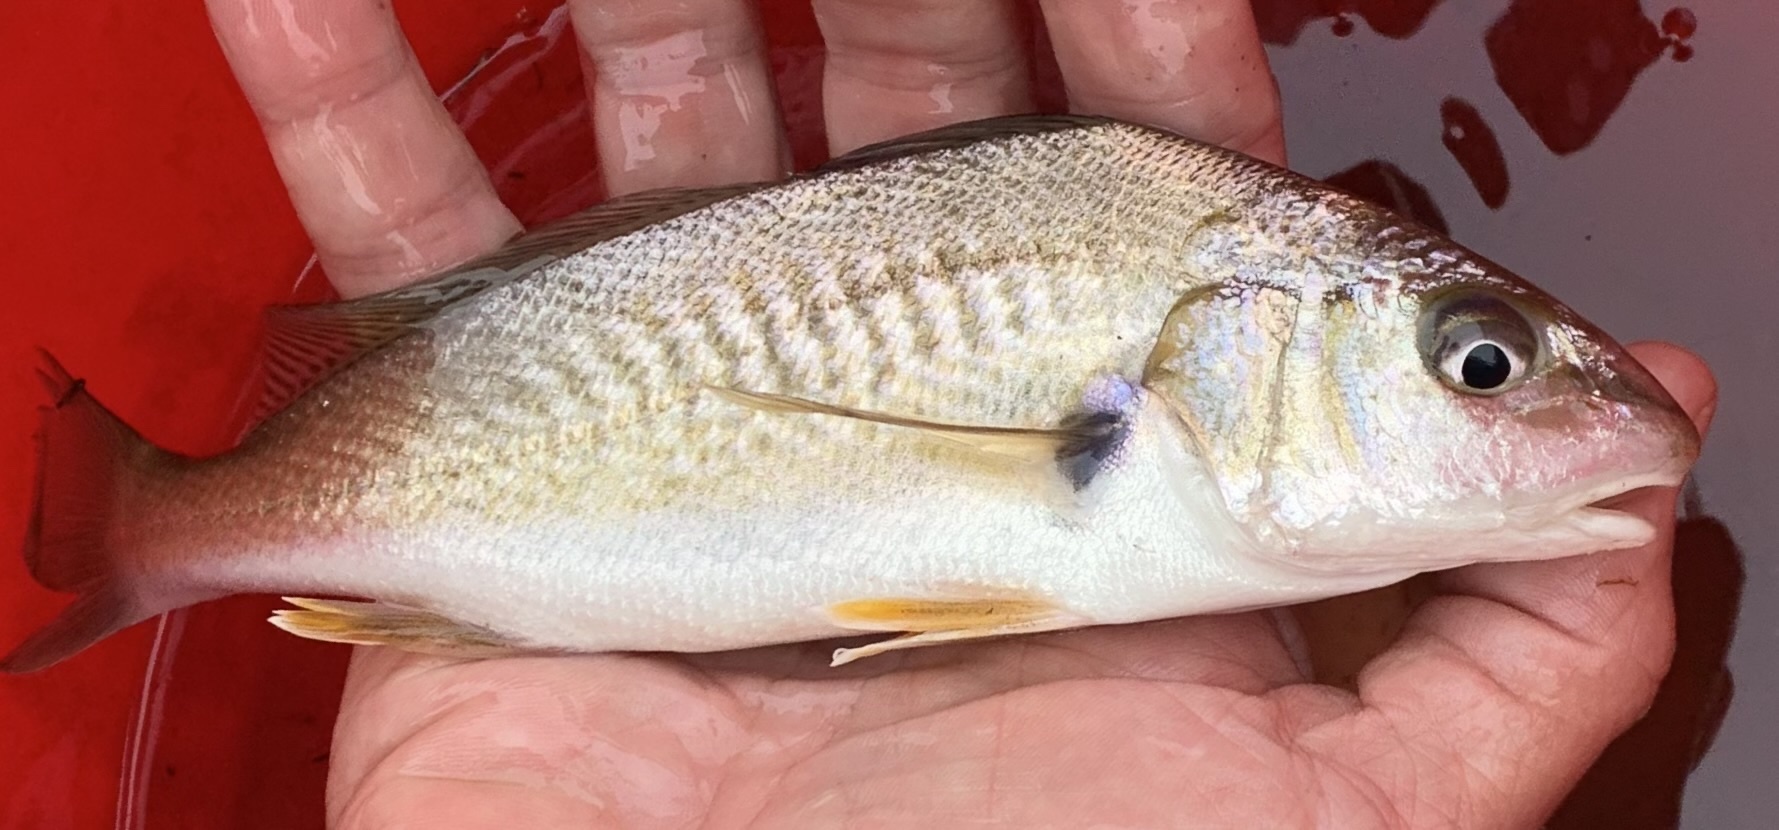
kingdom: Animalia
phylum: Chordata
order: Perciformes
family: Sciaenidae
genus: Micropogonias
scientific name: Micropogonias undulatus
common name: Atlantic croaker
